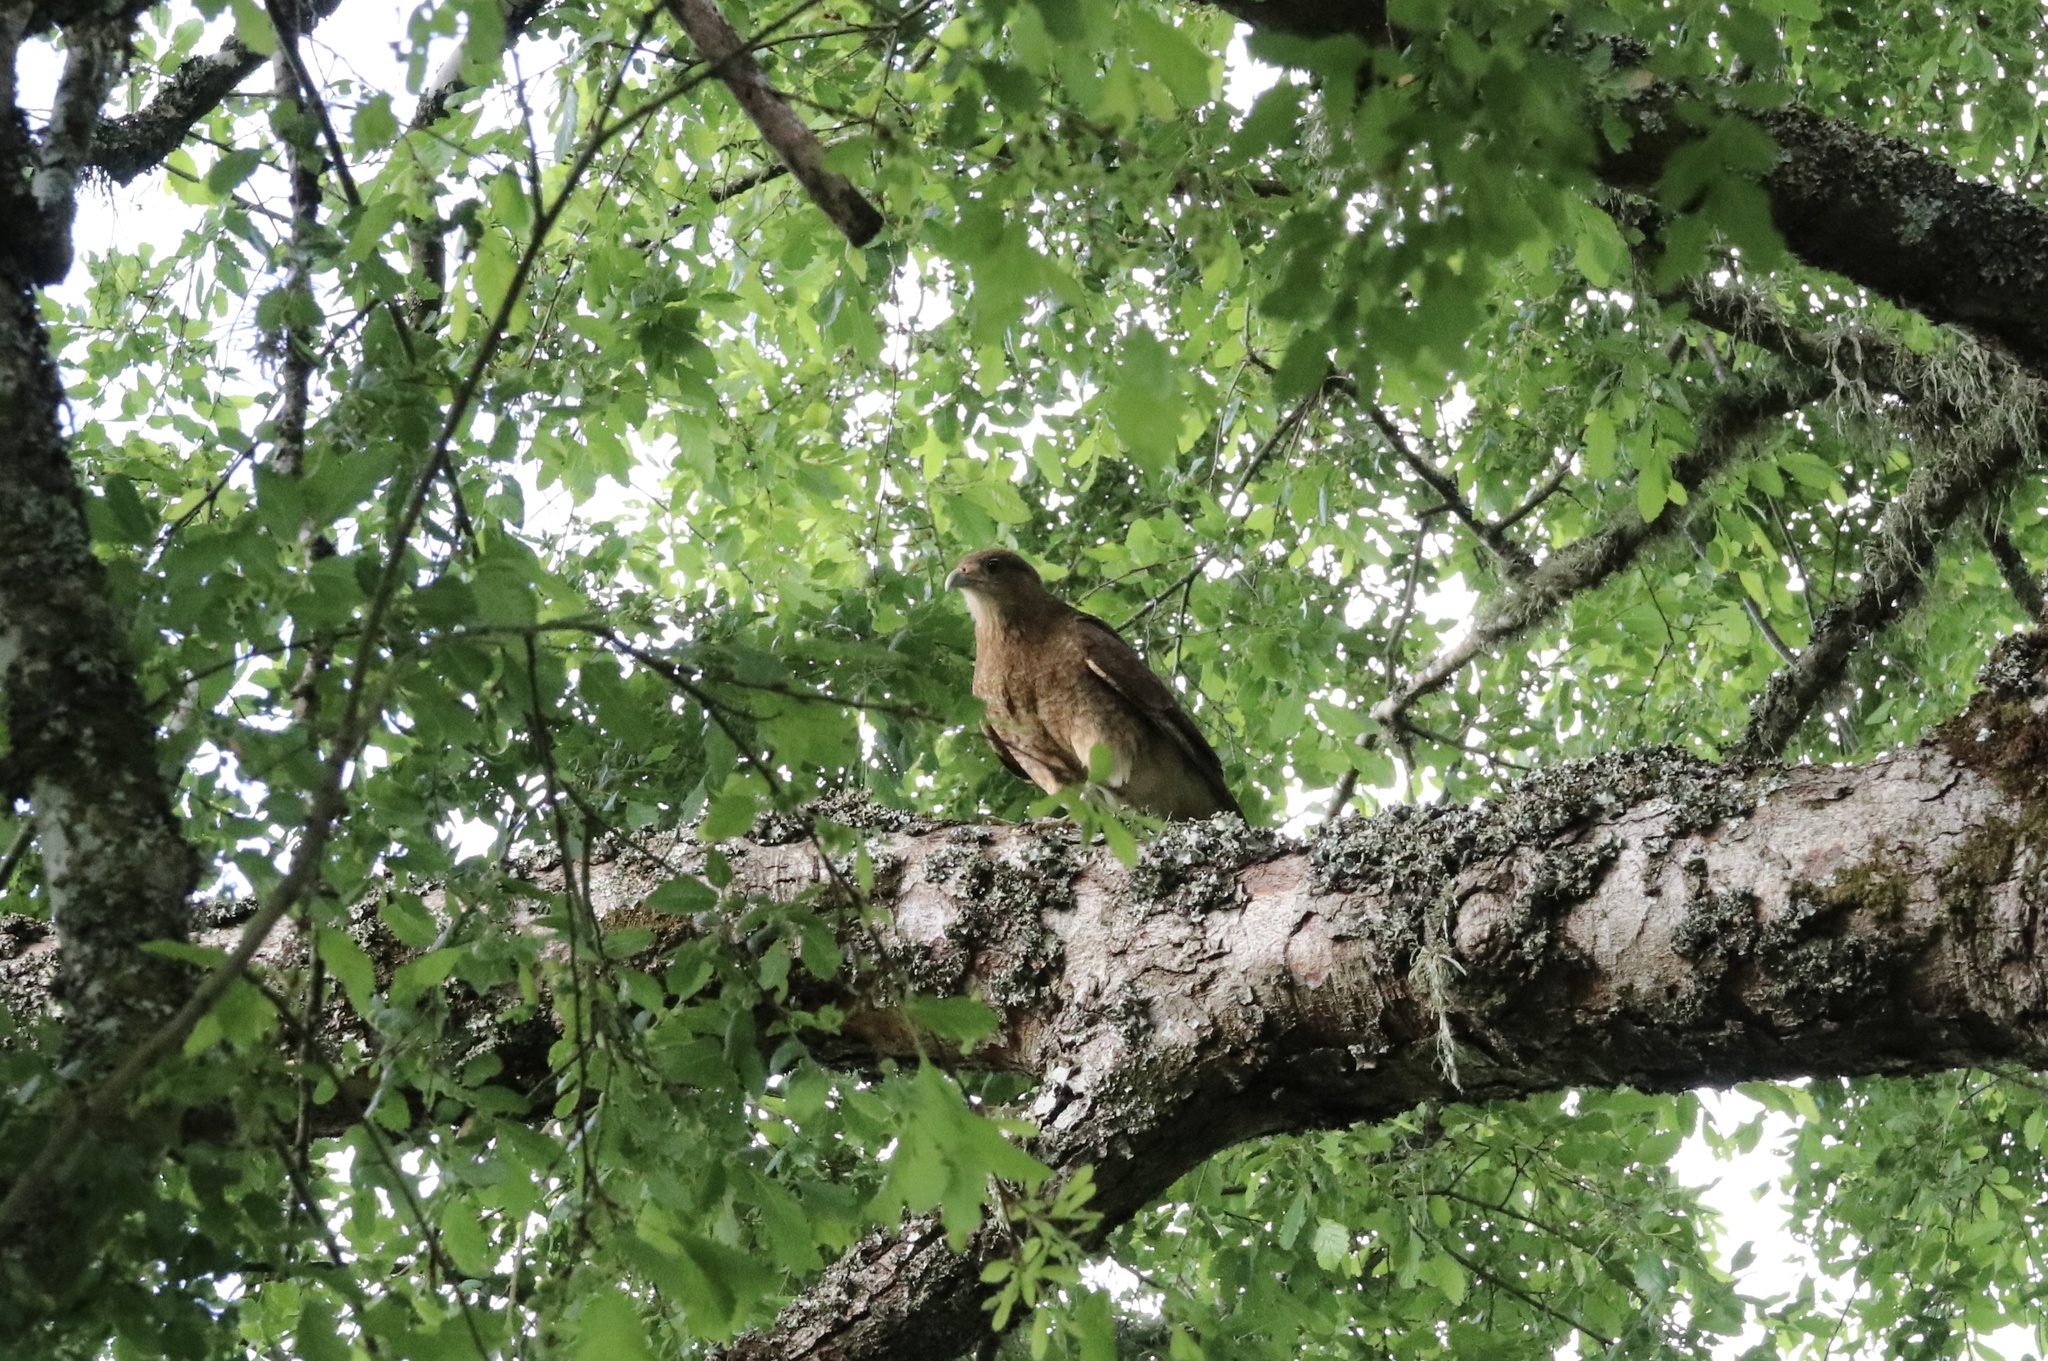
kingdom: Animalia
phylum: Chordata
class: Aves
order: Falconiformes
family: Falconidae
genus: Daptrius
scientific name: Daptrius
